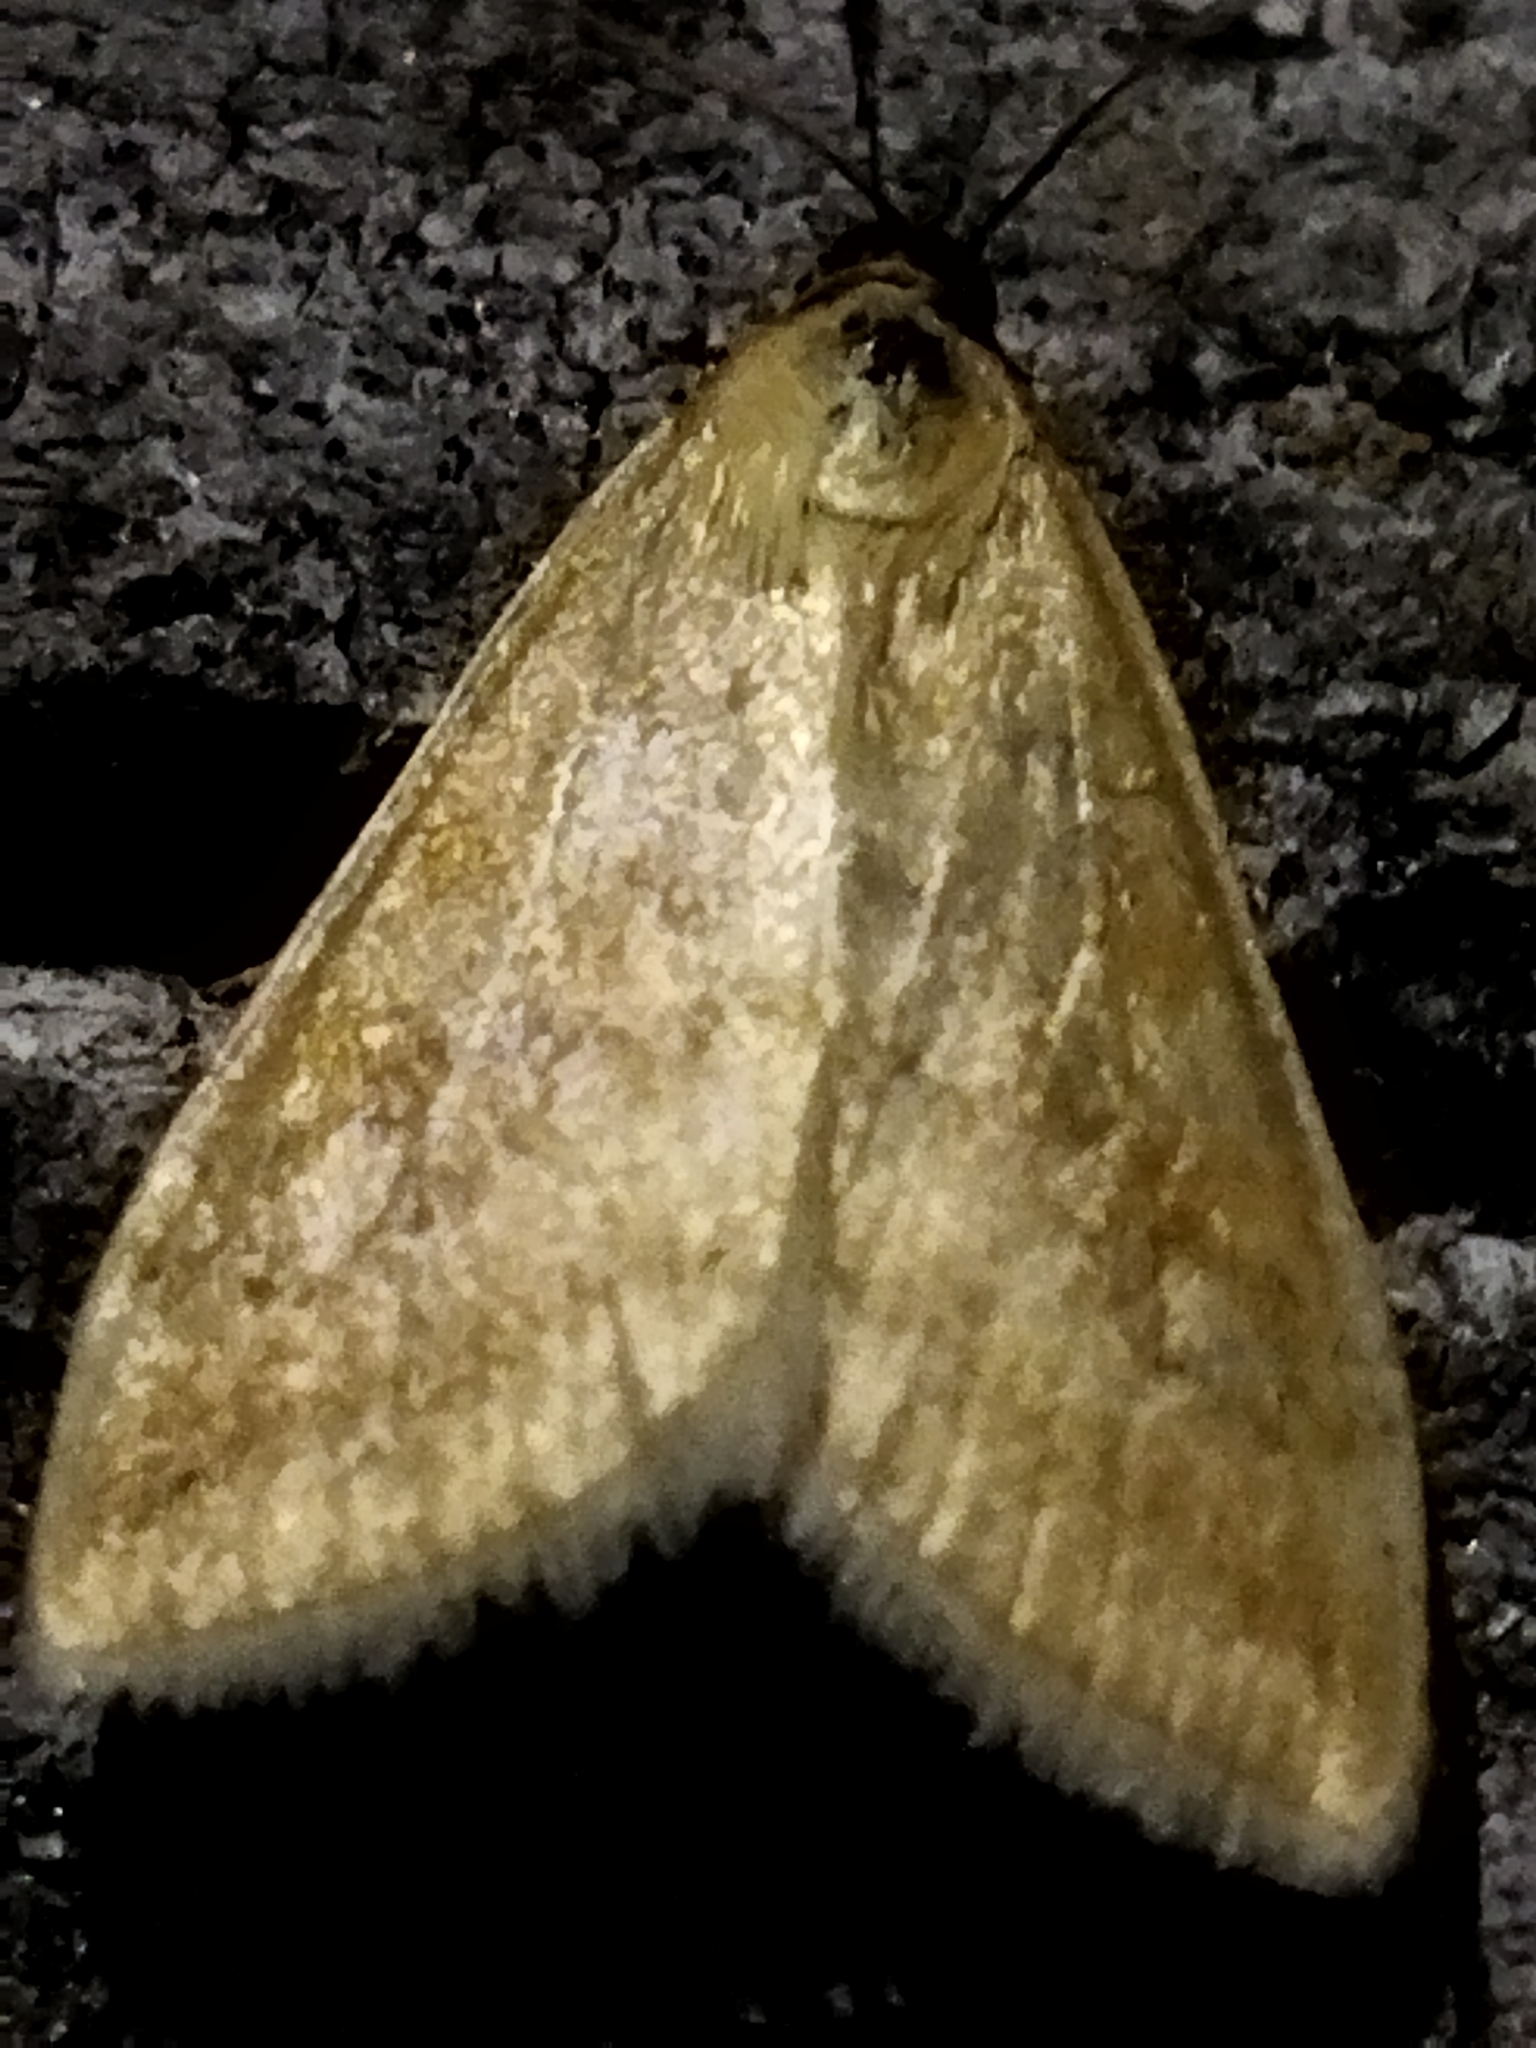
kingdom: Animalia
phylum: Arthropoda
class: Insecta
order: Lepidoptera
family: Crambidae
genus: Sitochroa
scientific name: Sitochroa verticalis
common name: Lesser pearl
